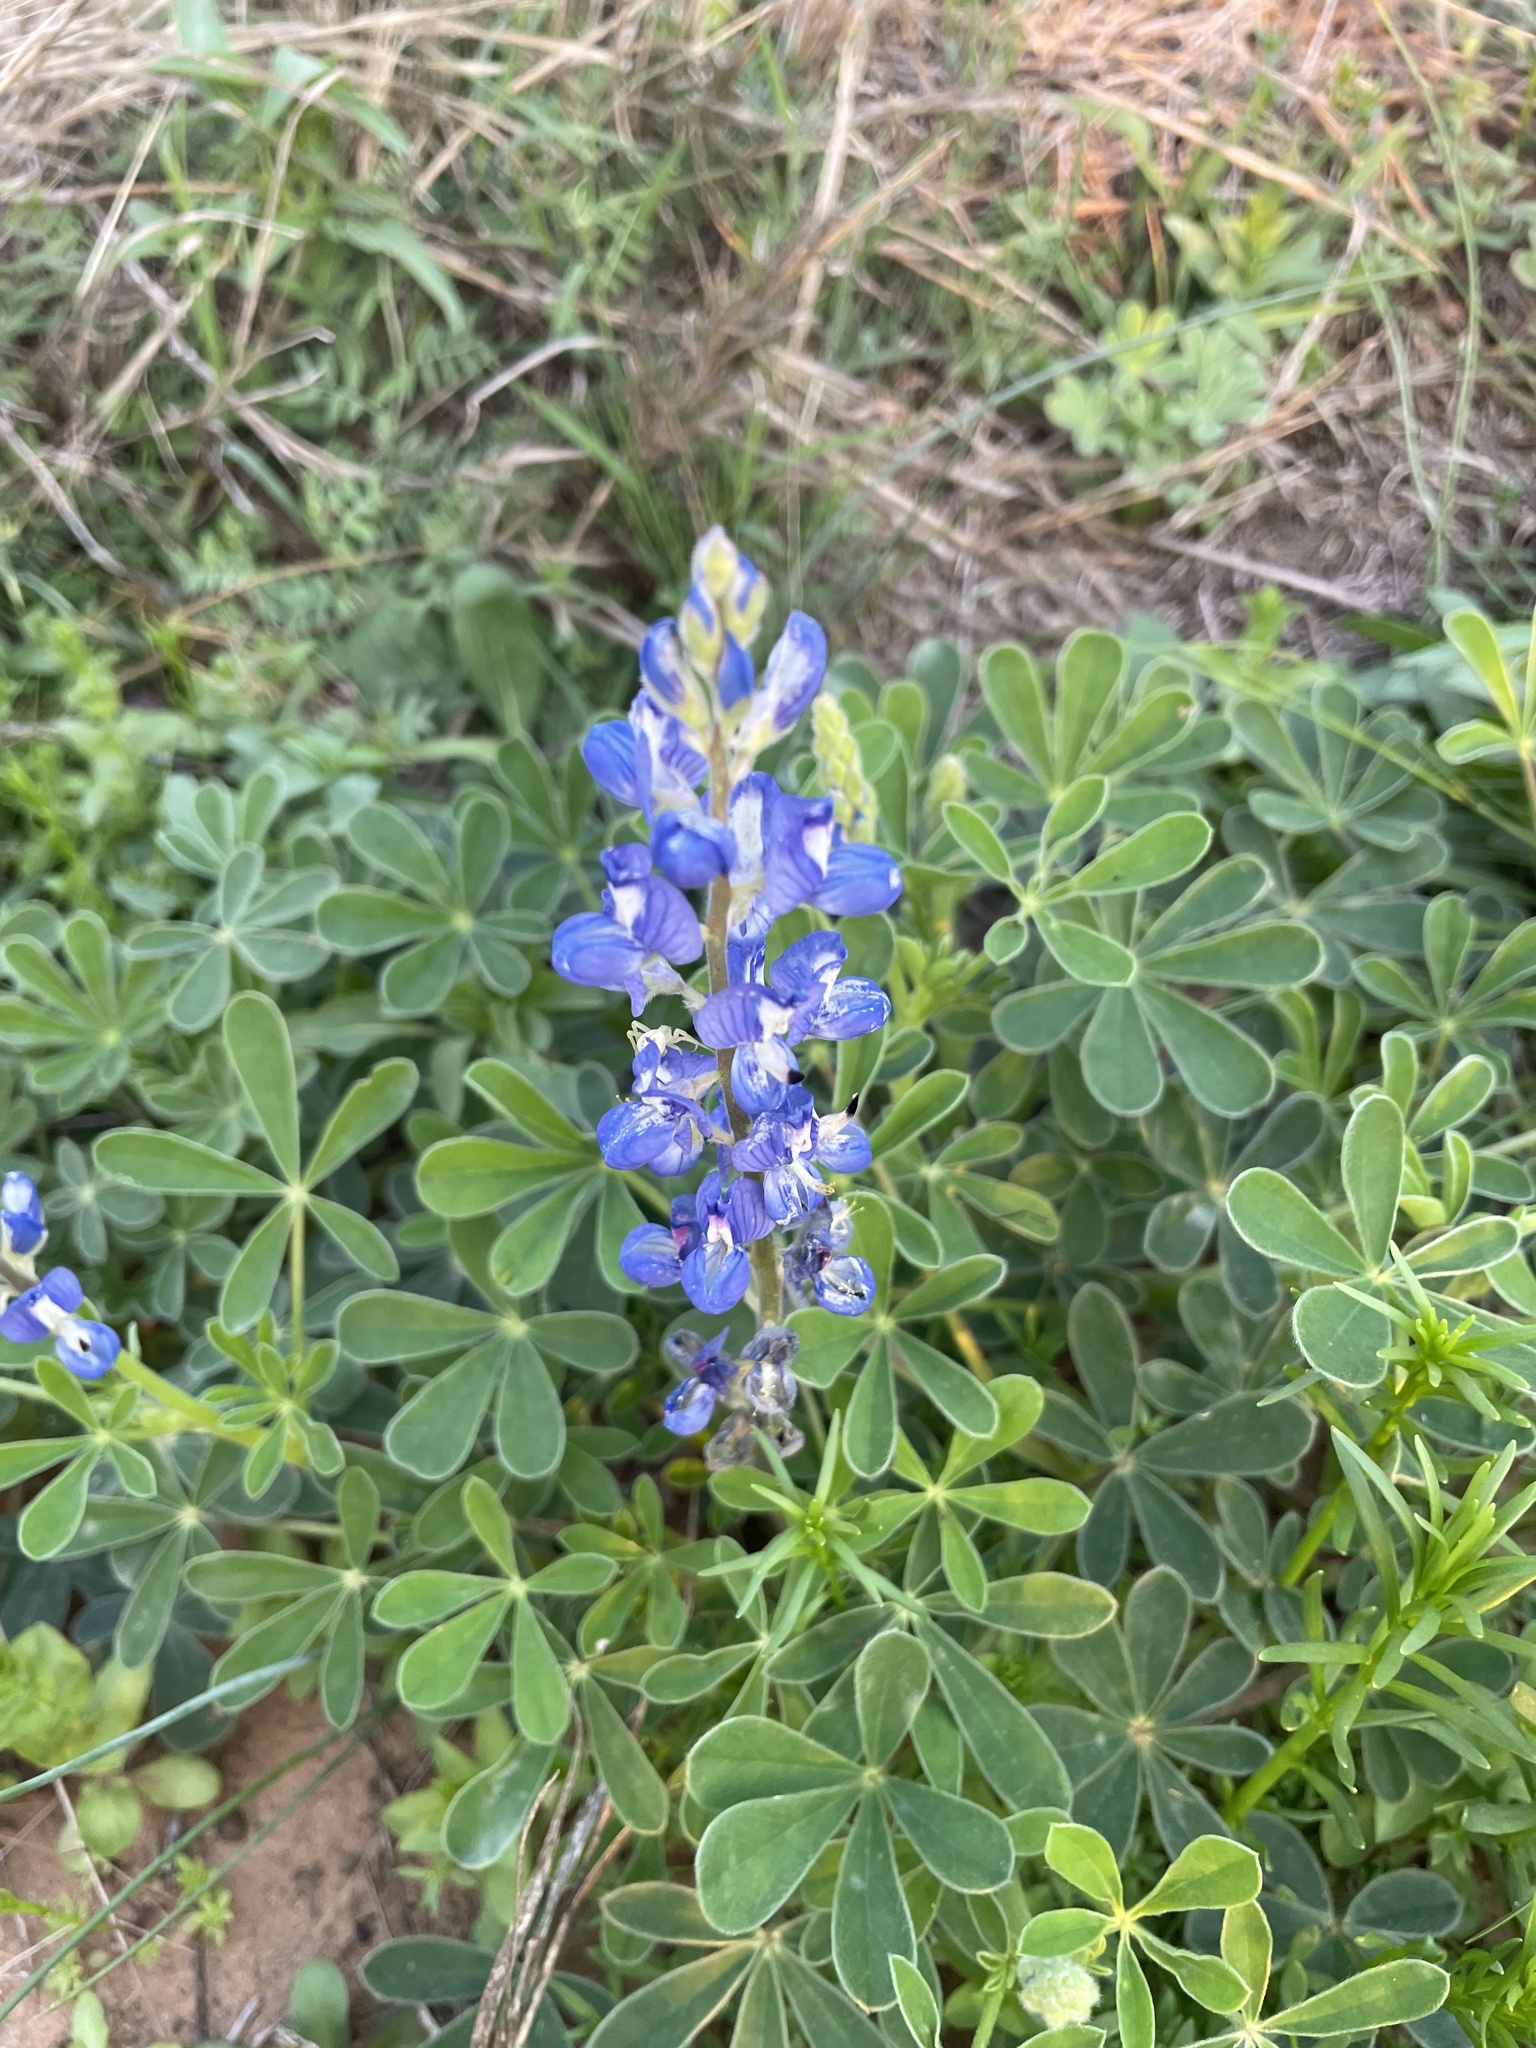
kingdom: Plantae
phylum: Tracheophyta
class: Magnoliopsida
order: Fabales
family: Fabaceae
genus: Lupinus
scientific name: Lupinus subcarnosus
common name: Texas bluebonnet
